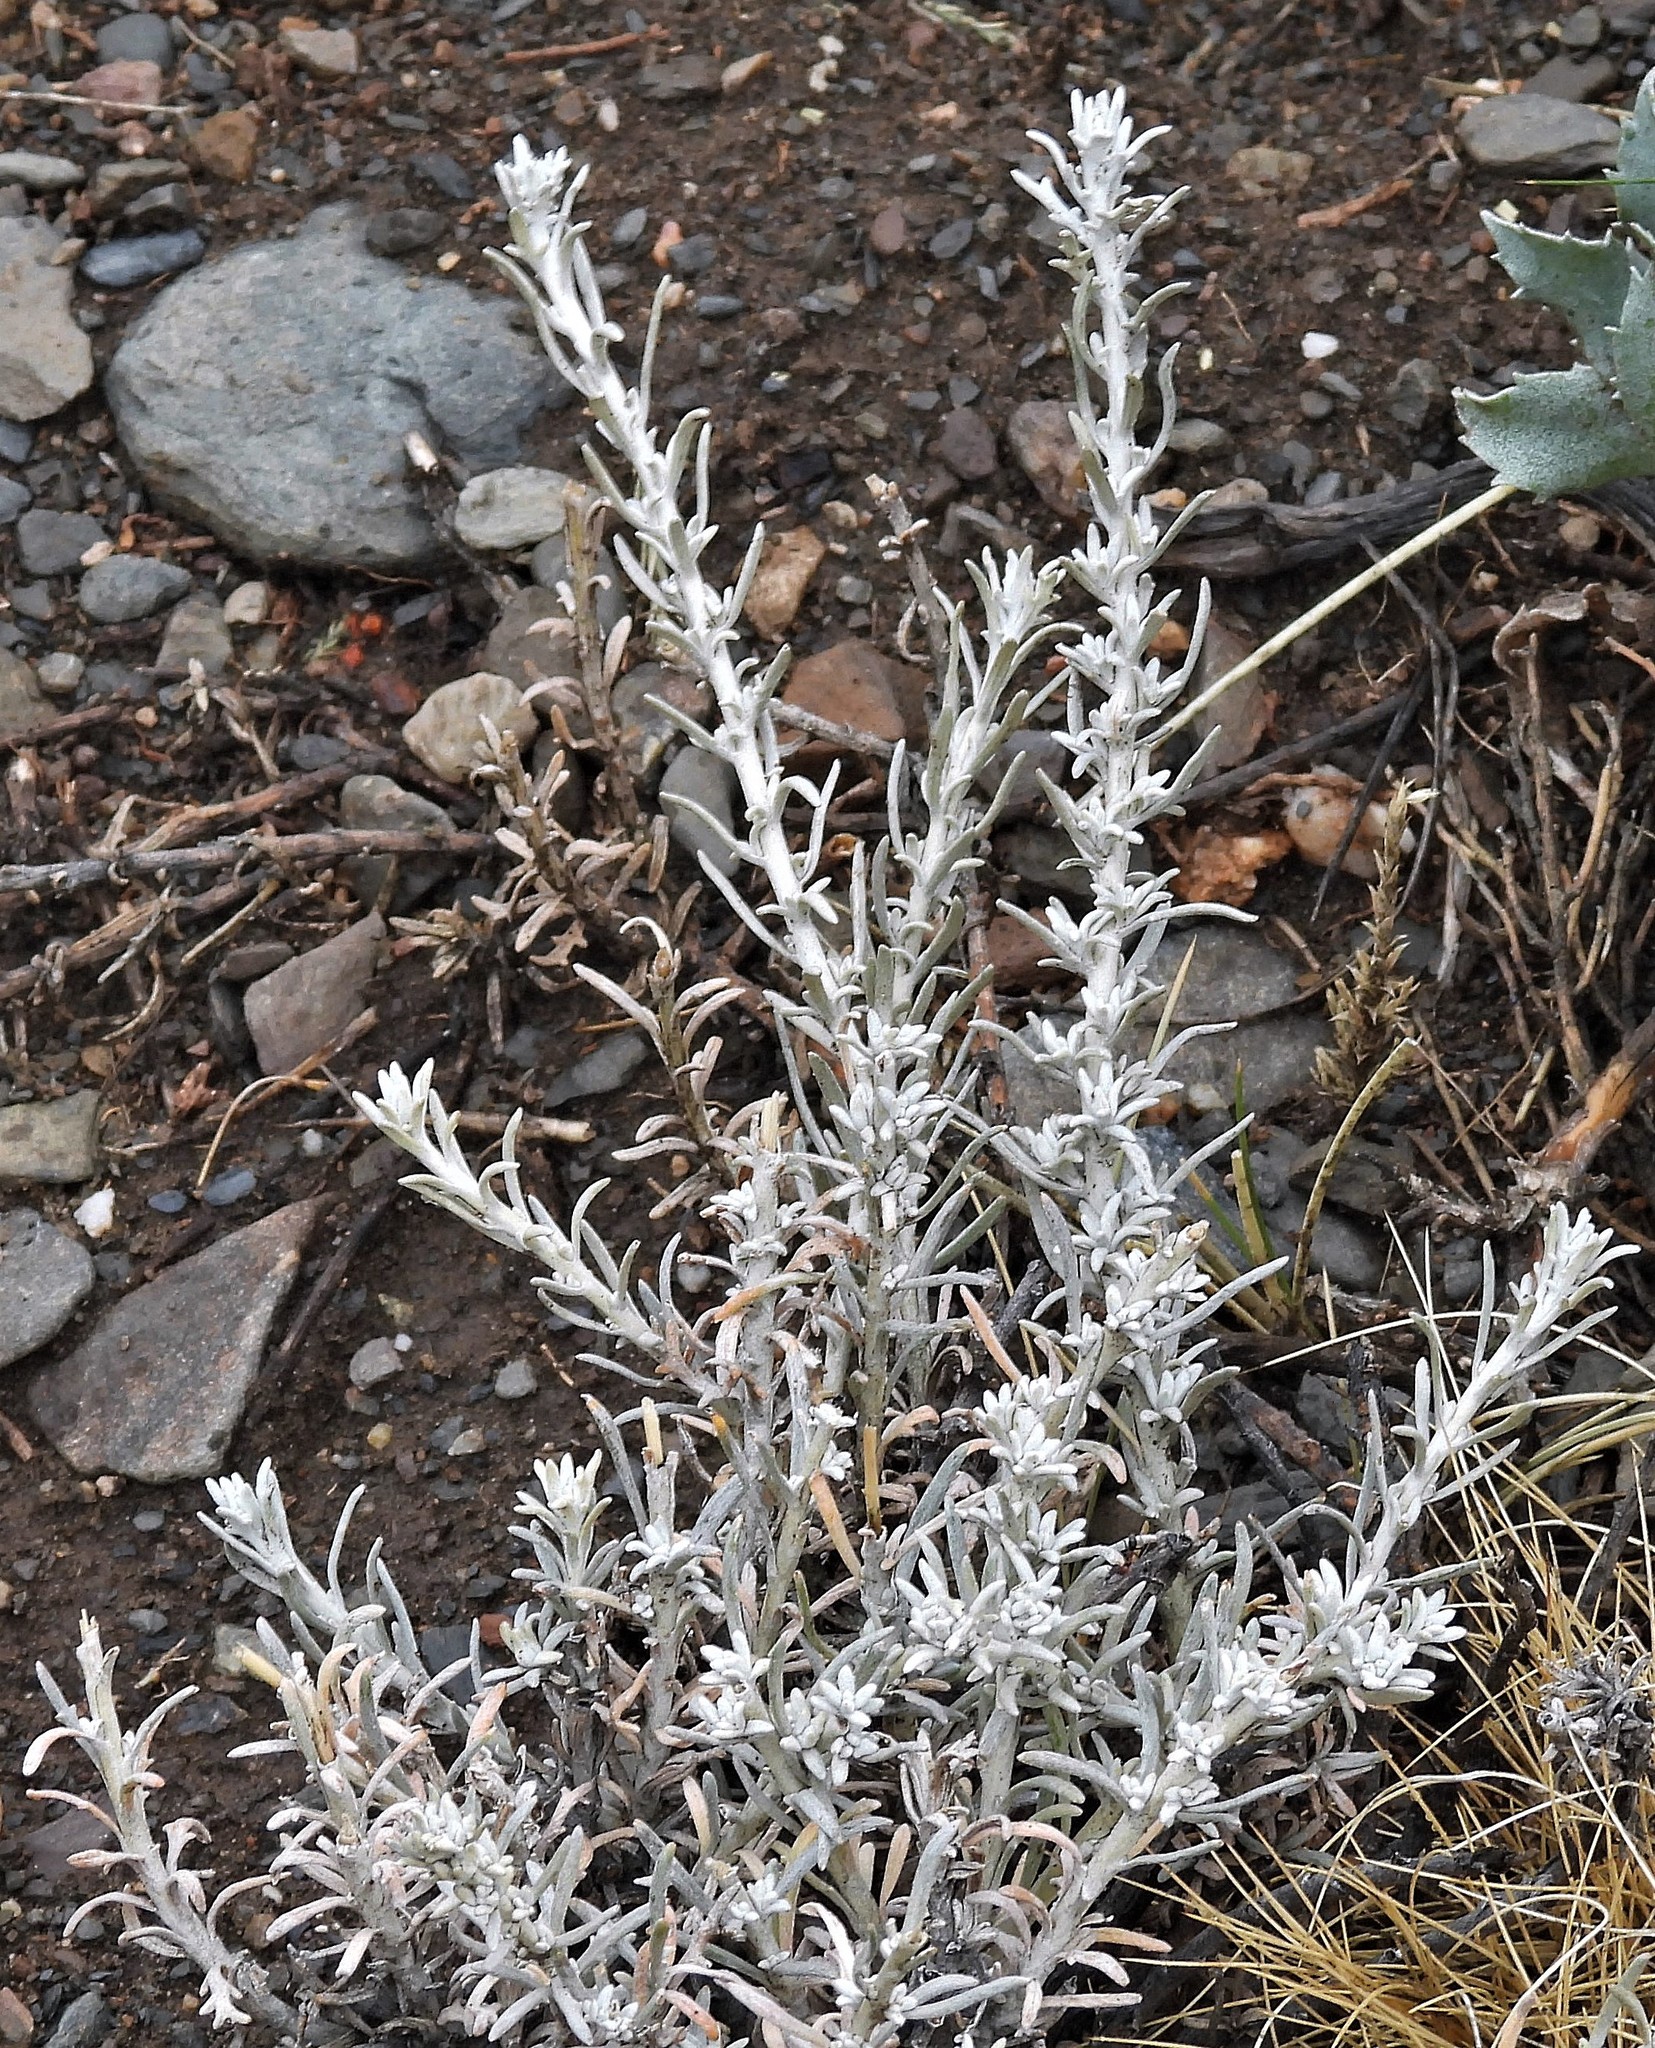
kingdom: Plantae
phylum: Tracheophyta
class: Magnoliopsida
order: Asterales
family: Asteraceae
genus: Senecio
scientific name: Senecio filaginoides
